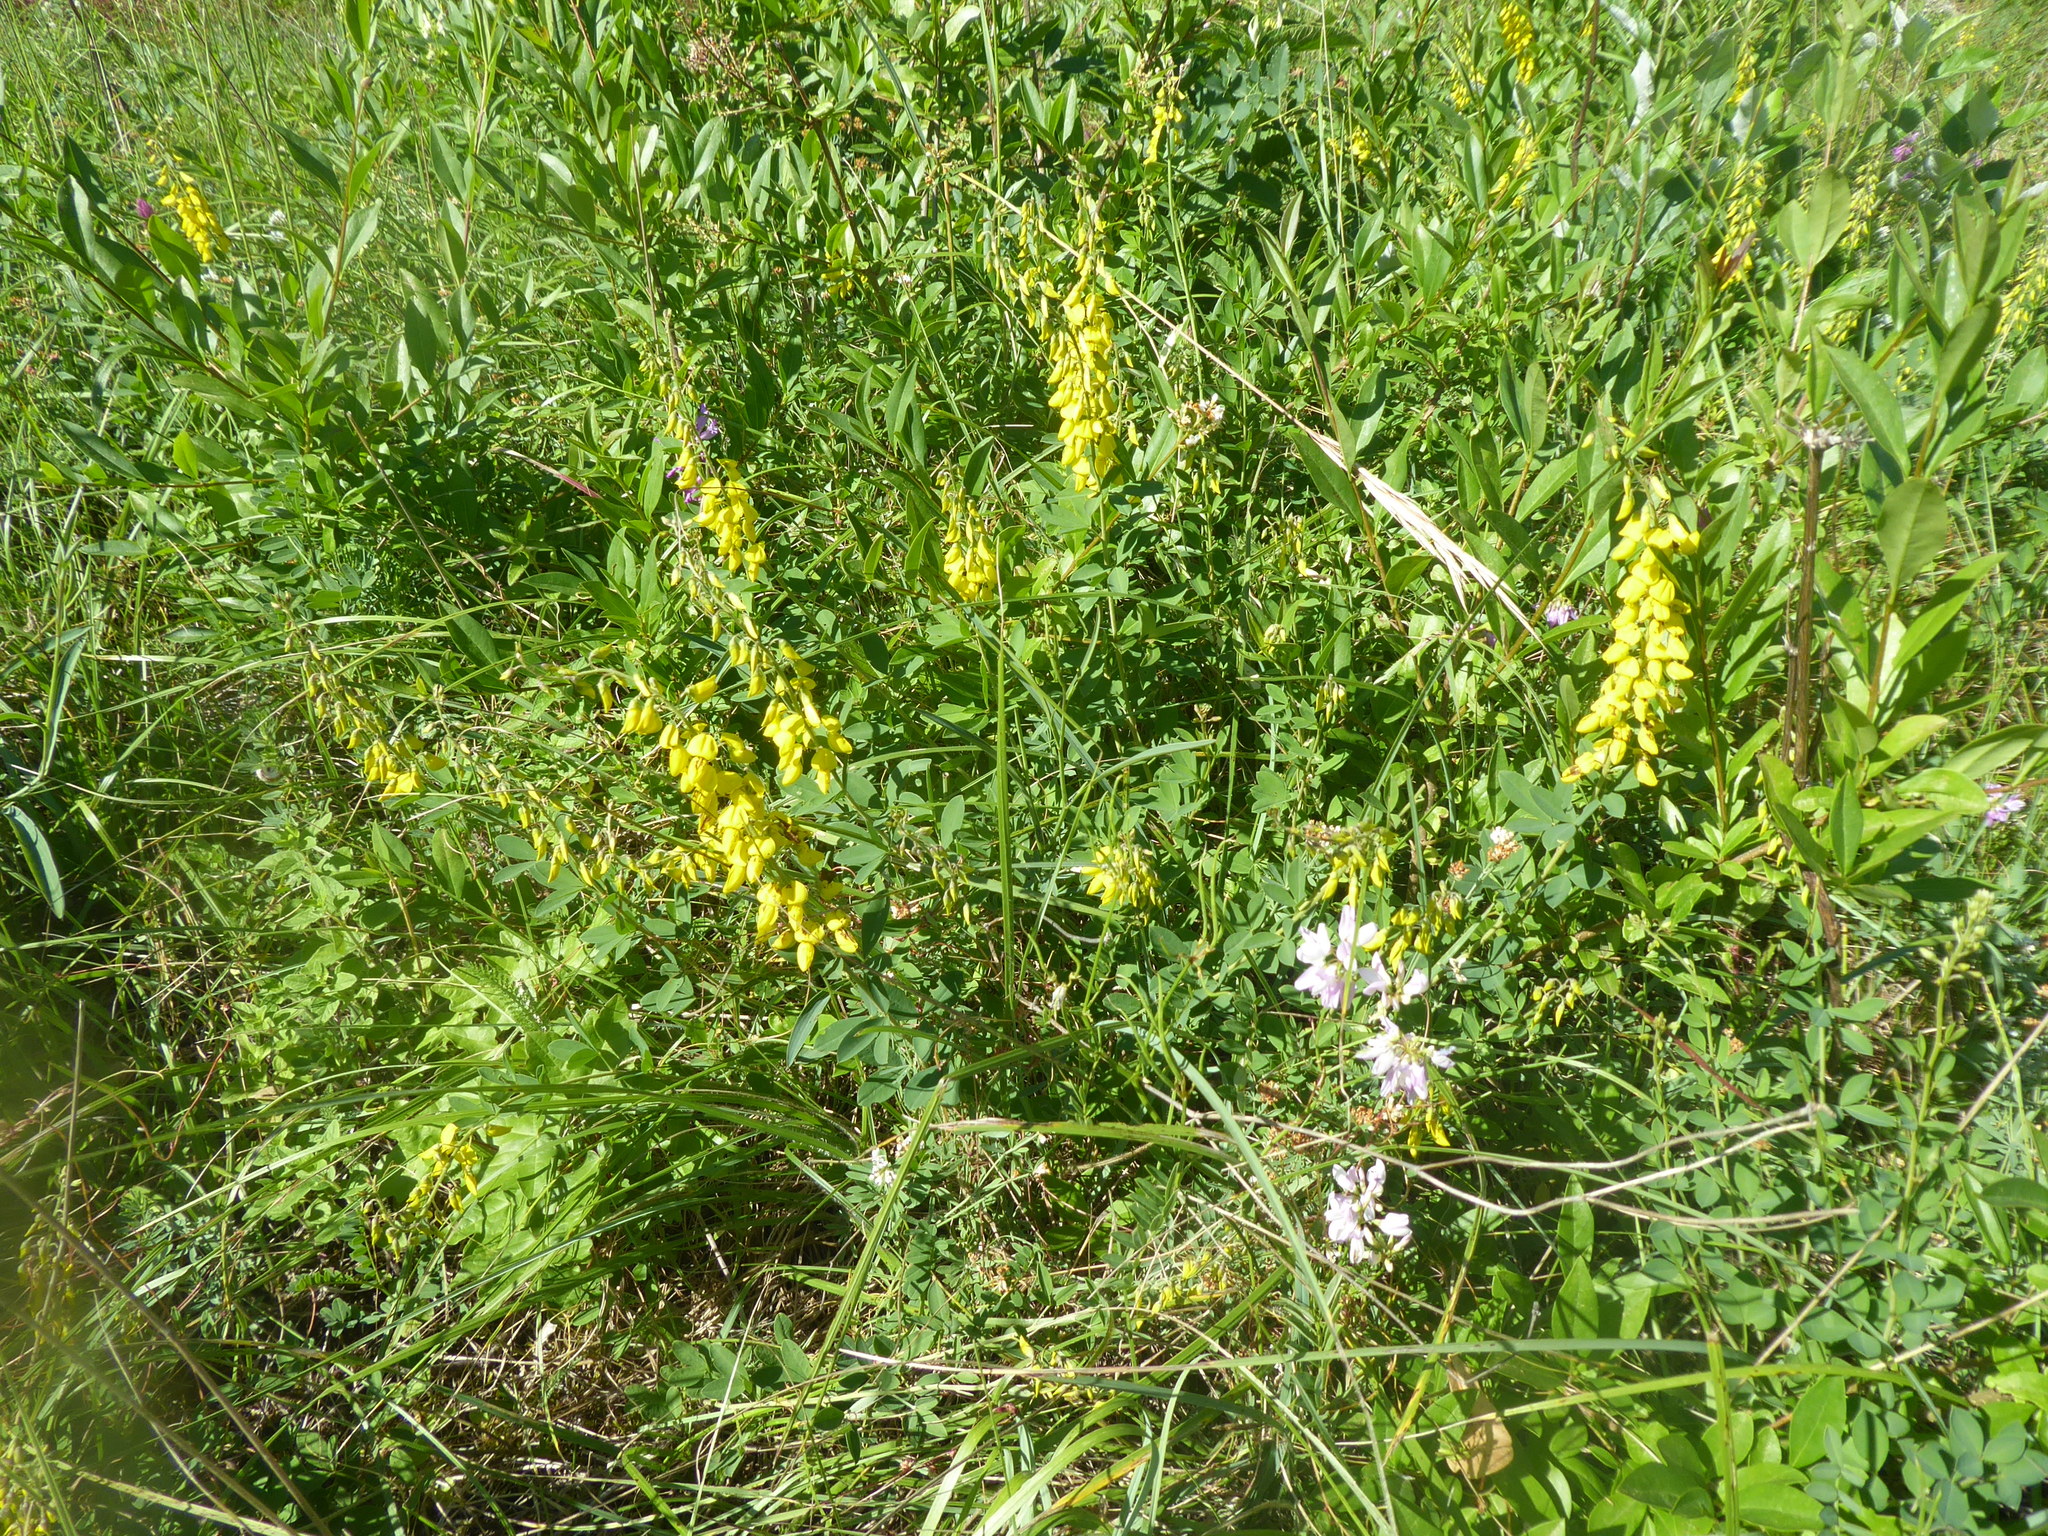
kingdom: Plantae
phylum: Tracheophyta
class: Magnoliopsida
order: Fabales
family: Fabaceae
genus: Cytisus
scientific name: Cytisus nigricans
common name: Black broom
